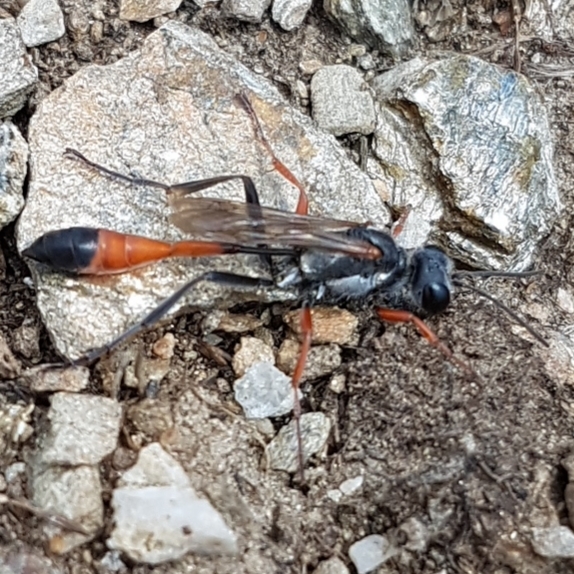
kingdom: Animalia
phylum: Arthropoda
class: Insecta
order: Hymenoptera
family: Sphecidae
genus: Ammophila
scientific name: Ammophila heydeni
